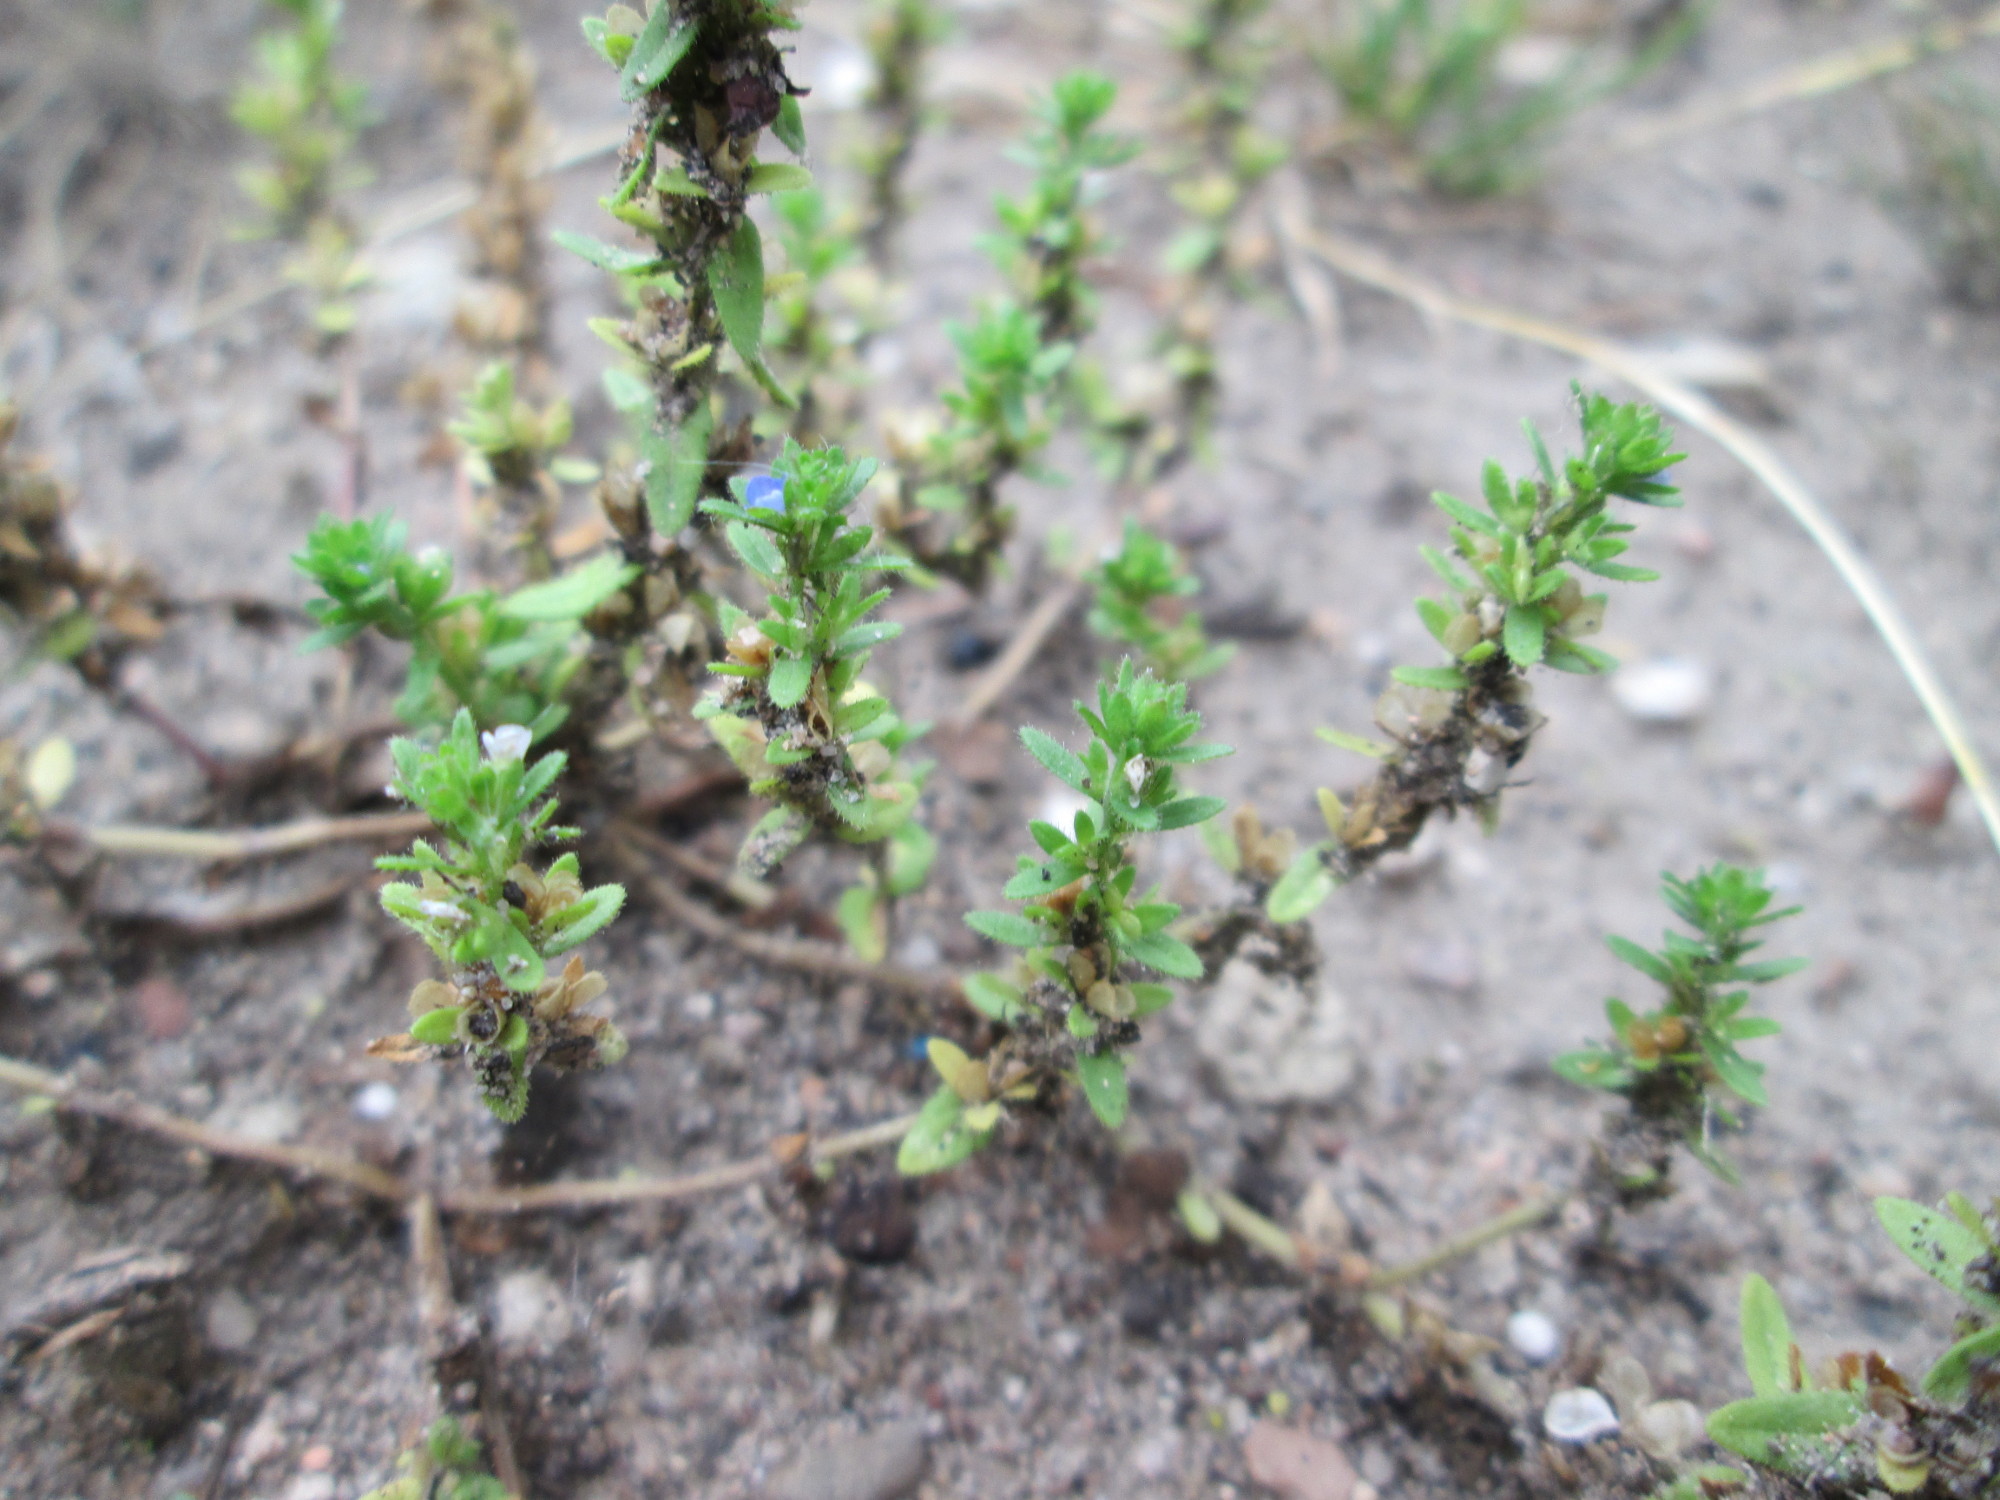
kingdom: Plantae
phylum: Tracheophyta
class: Magnoliopsida
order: Lamiales
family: Plantaginaceae
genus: Veronica
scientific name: Veronica arvensis
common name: Corn speedwell
